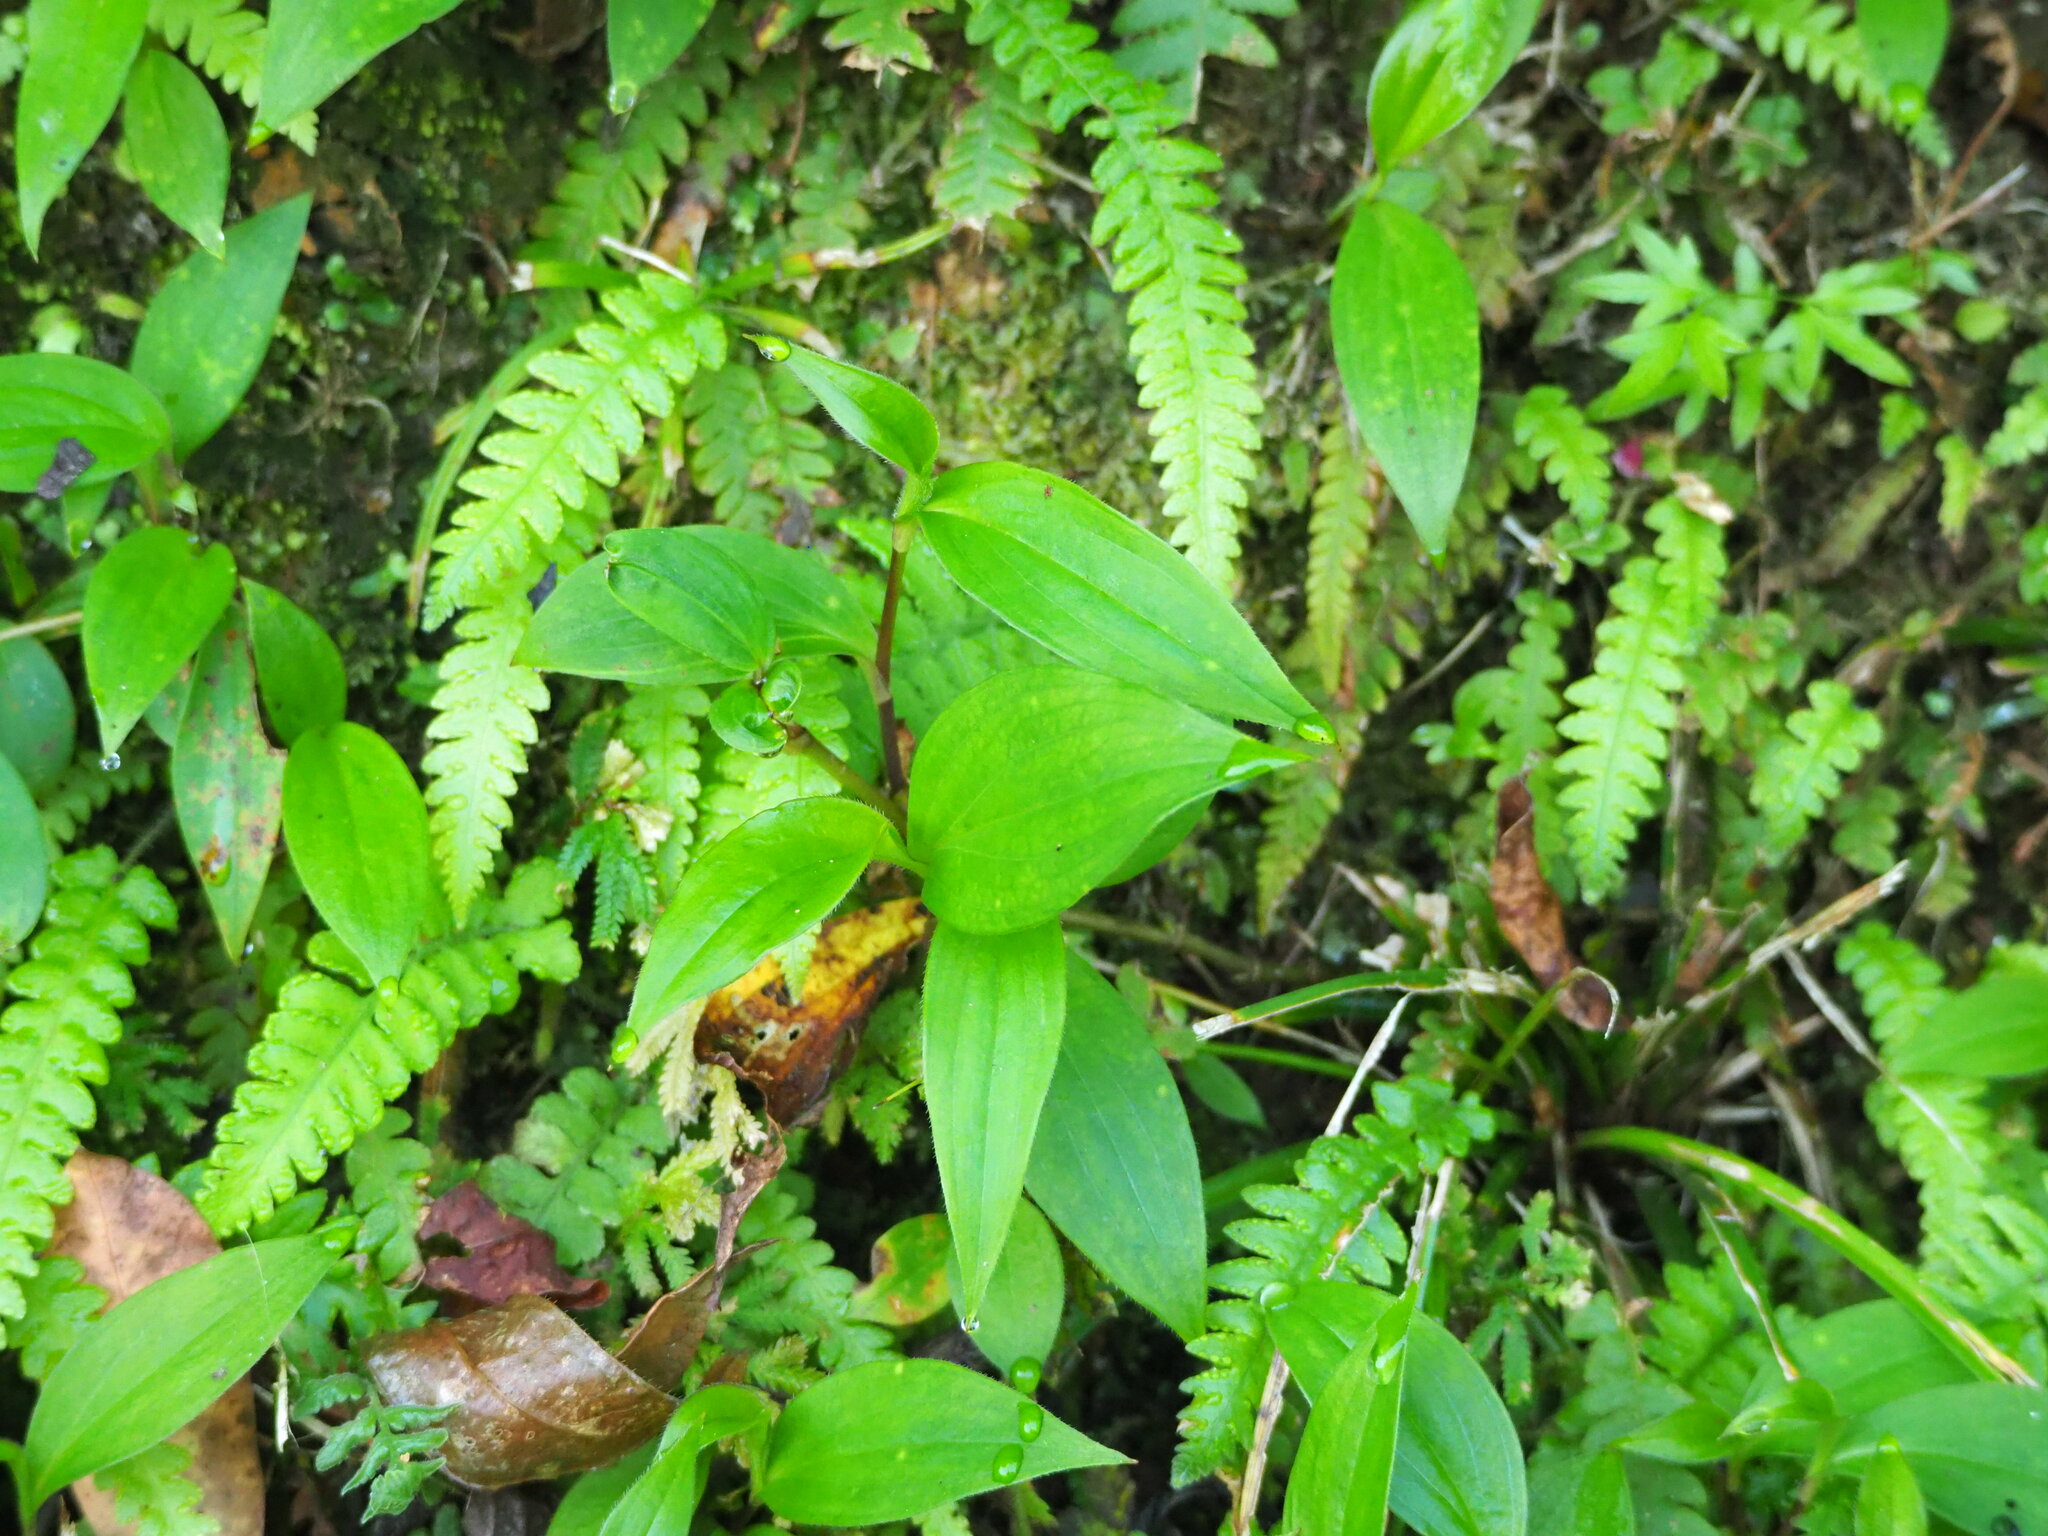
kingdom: Plantae
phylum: Tracheophyta
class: Liliopsida
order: Liliales
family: Liliaceae
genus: Tricyrtis
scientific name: Tricyrtis formosana
